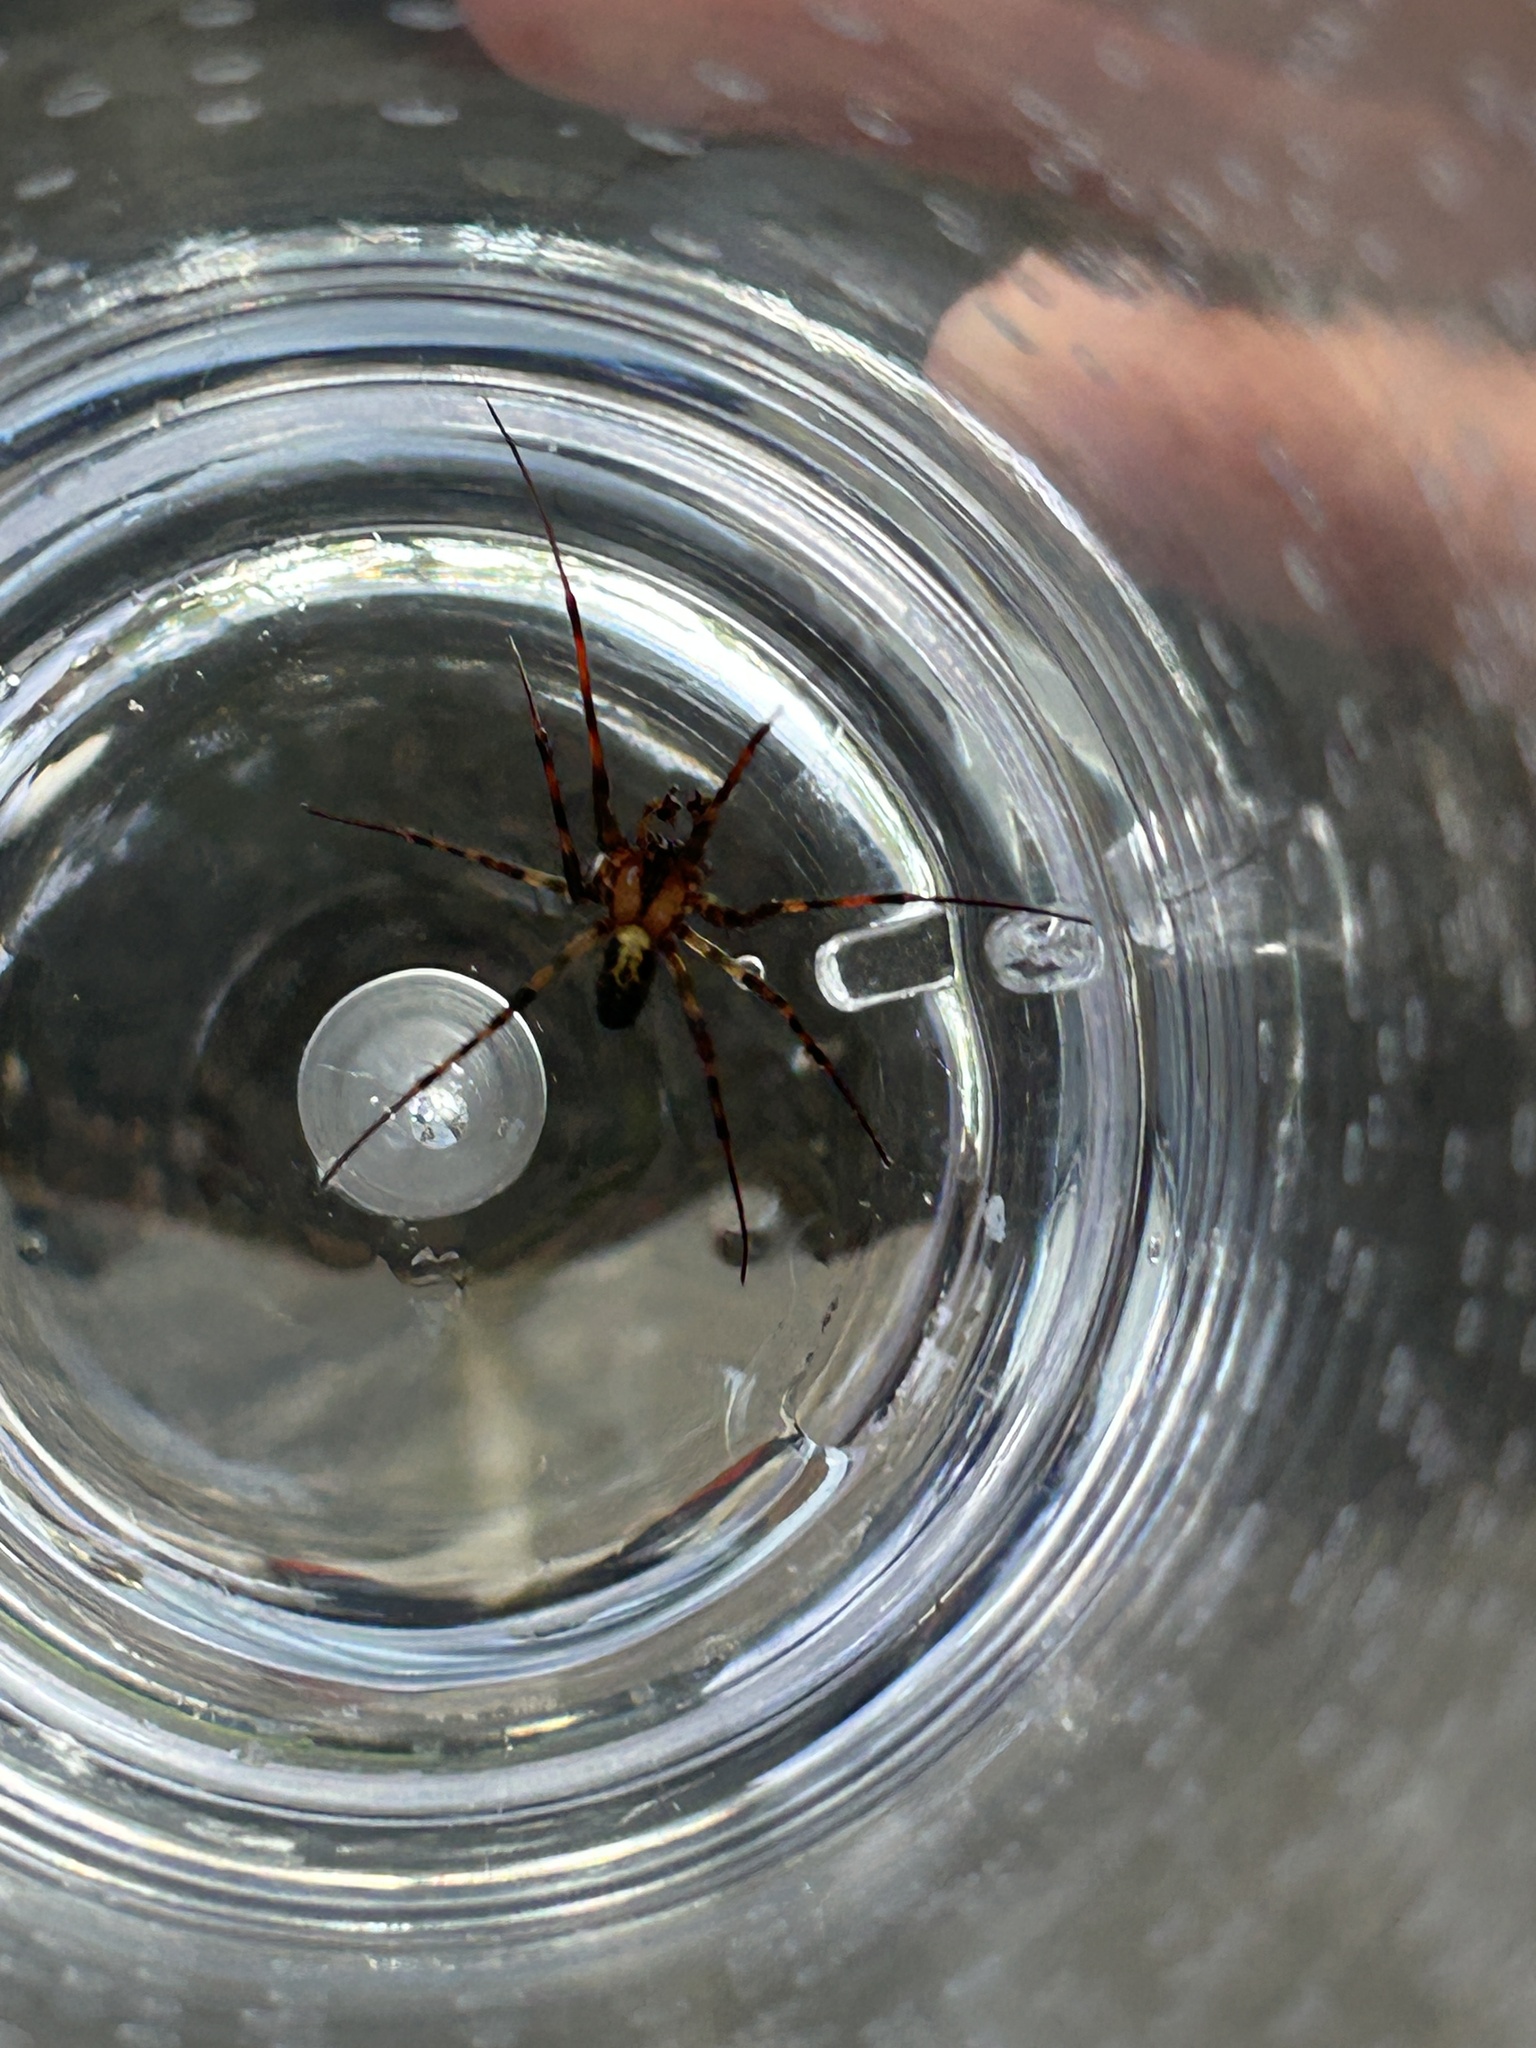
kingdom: Animalia
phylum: Arthropoda
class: Arachnida
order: Araneae
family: Tetragnathidae
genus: Meta
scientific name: Meta ovalis
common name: Eastern cave long-jawed spider
